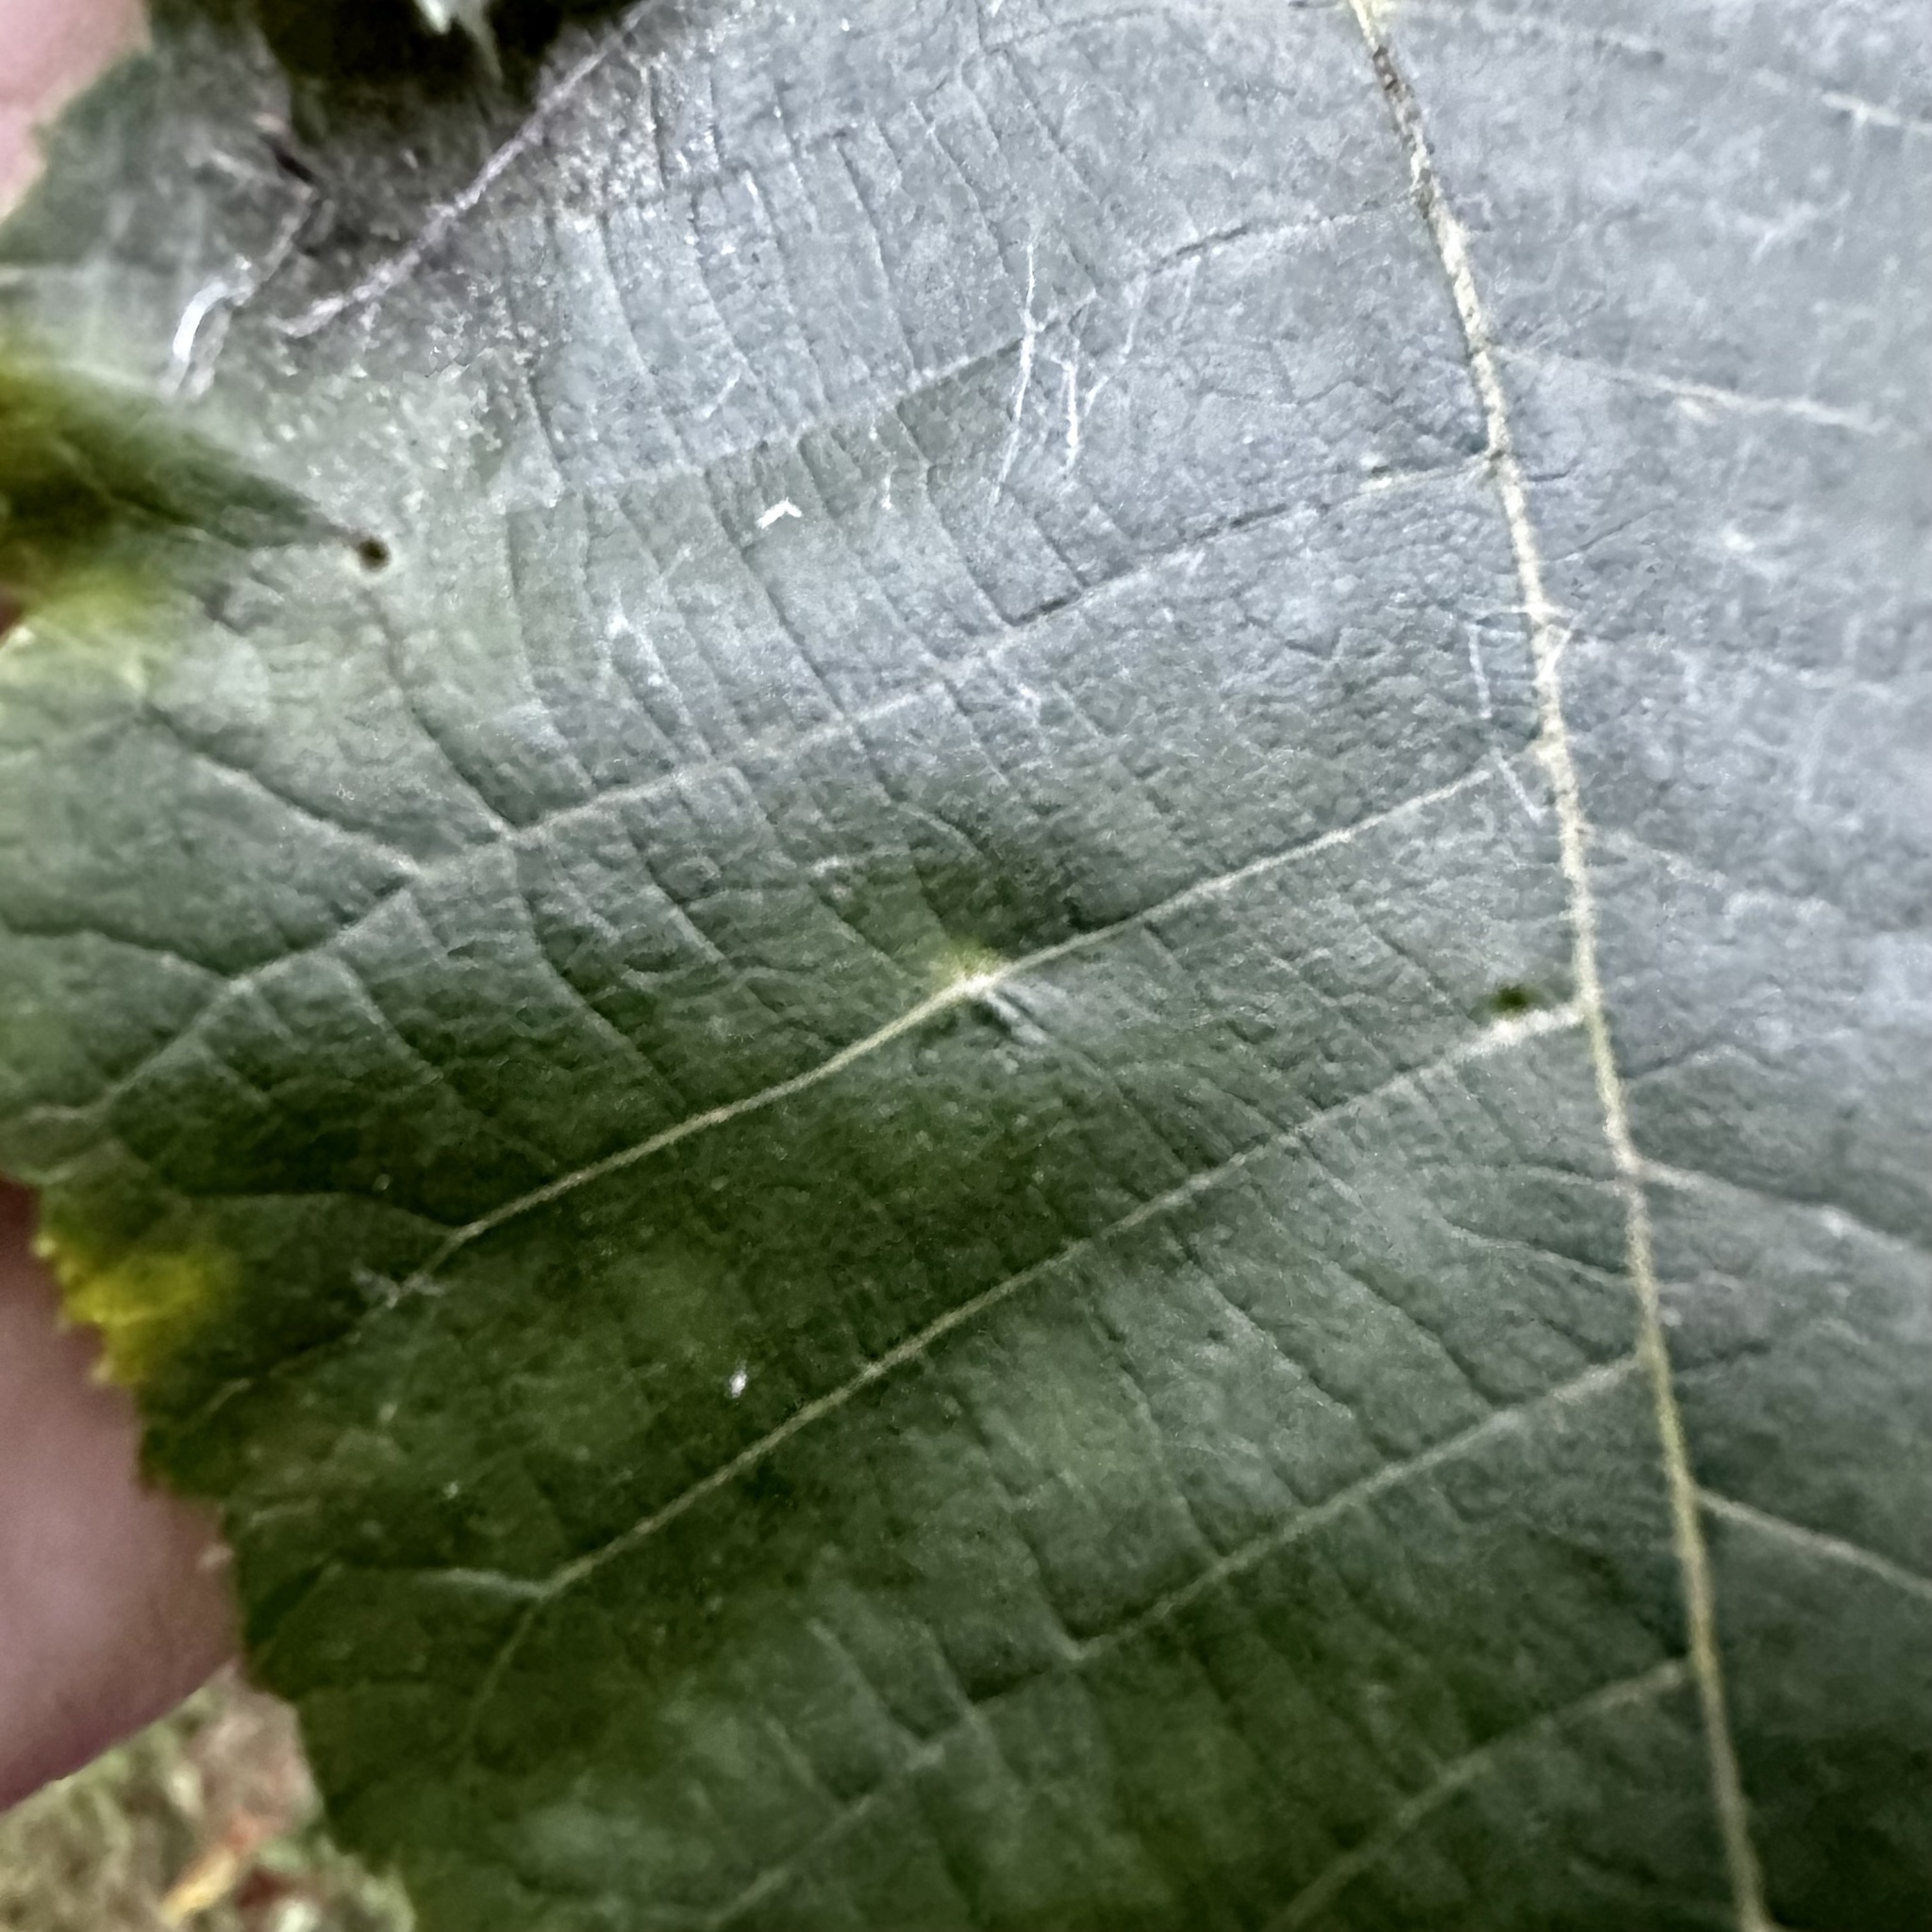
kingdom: Animalia
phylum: Arthropoda
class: Insecta
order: Diptera
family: Cecidomyiidae
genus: Caryomyia
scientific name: Caryomyia tuberidolium
